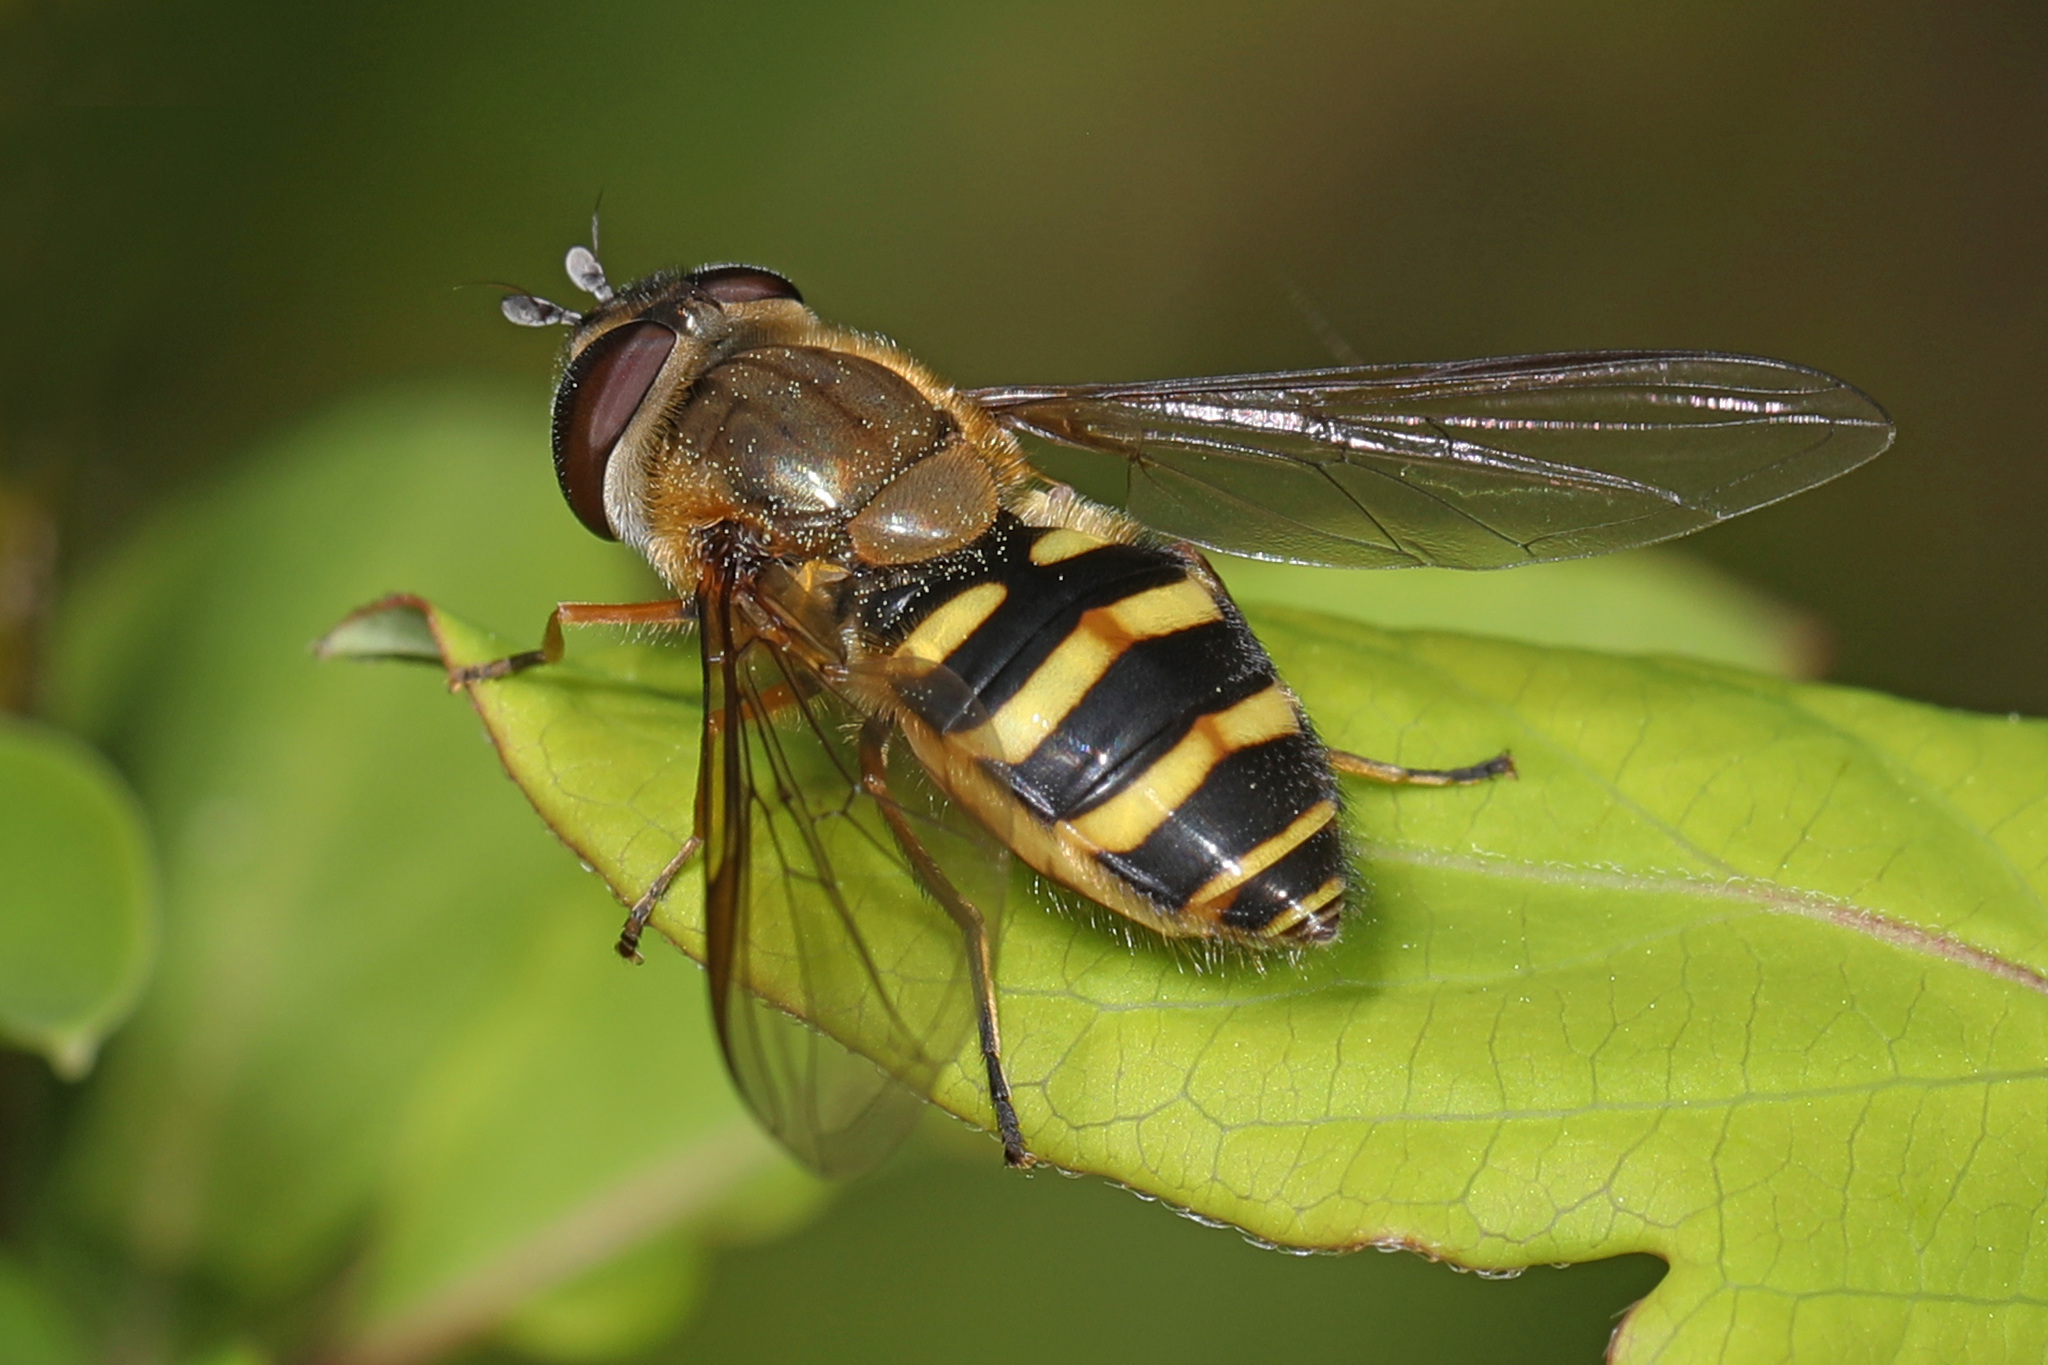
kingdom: Animalia
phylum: Arthropoda
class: Insecta
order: Diptera
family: Syrphidae
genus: Syrphus
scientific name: Syrphus torvus
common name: Hairy-eyed flower fly
